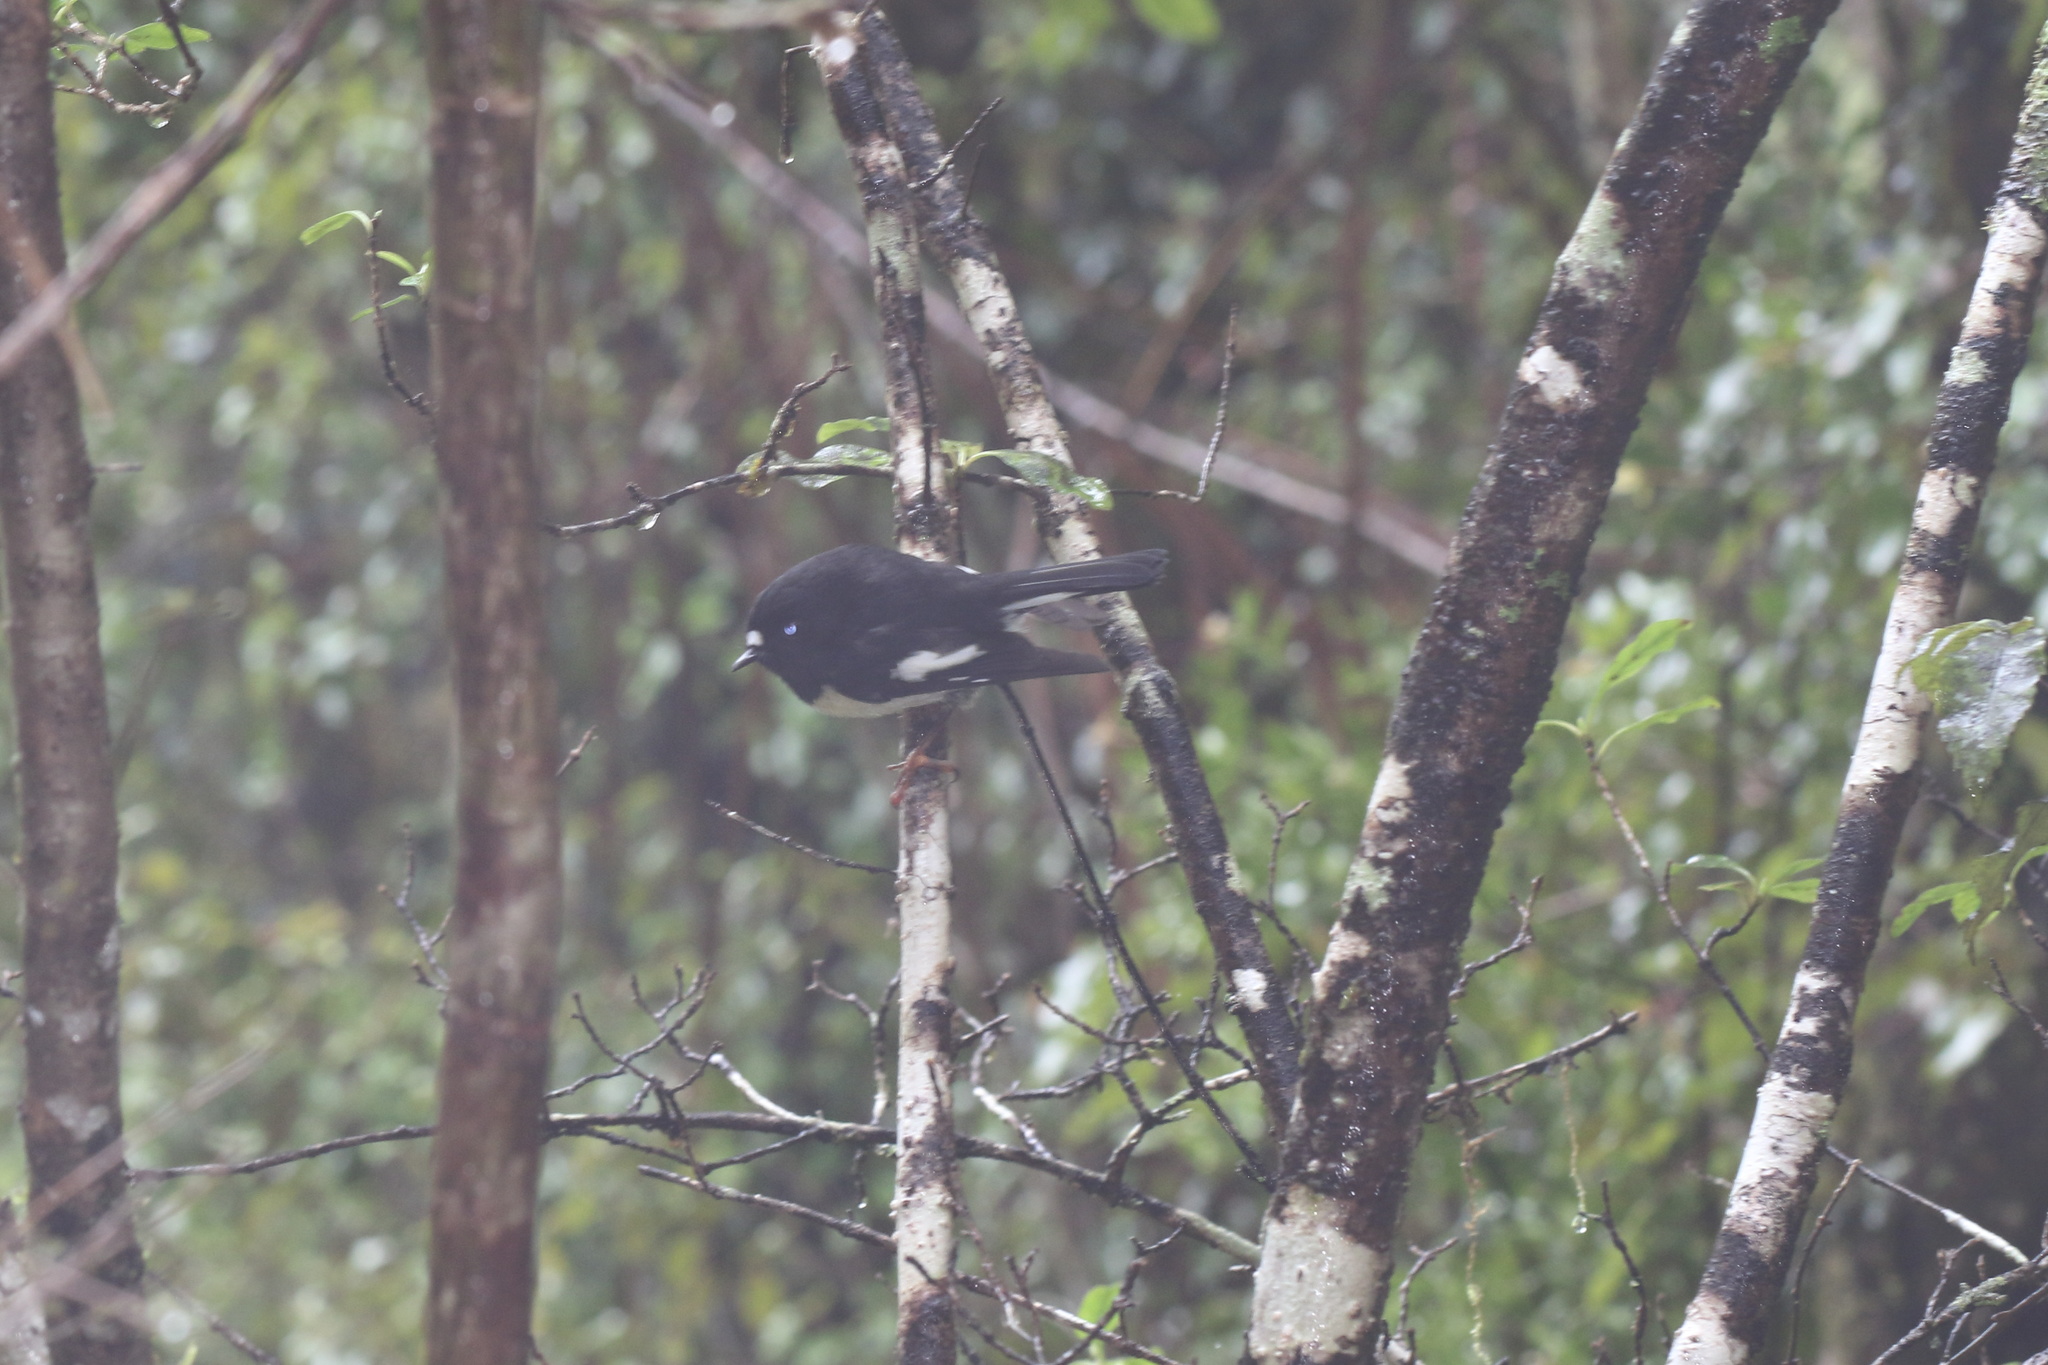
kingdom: Animalia
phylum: Chordata
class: Aves
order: Passeriformes
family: Petroicidae
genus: Petroica
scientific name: Petroica macrocephala
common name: Tomtit
